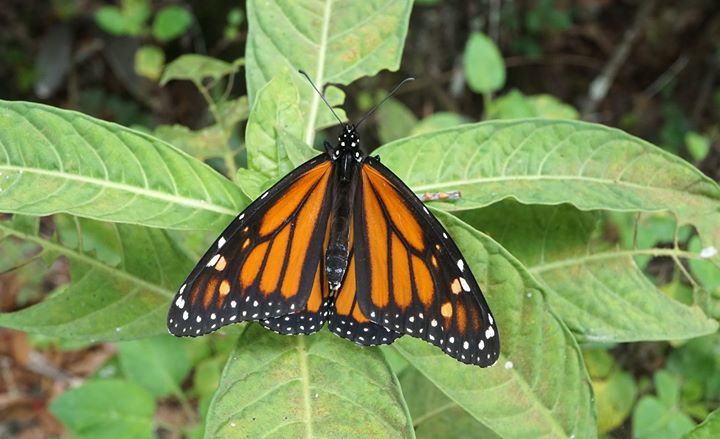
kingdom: Animalia
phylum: Arthropoda
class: Insecta
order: Lepidoptera
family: Nymphalidae
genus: Danaus
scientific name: Danaus plexippus
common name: Monarch
